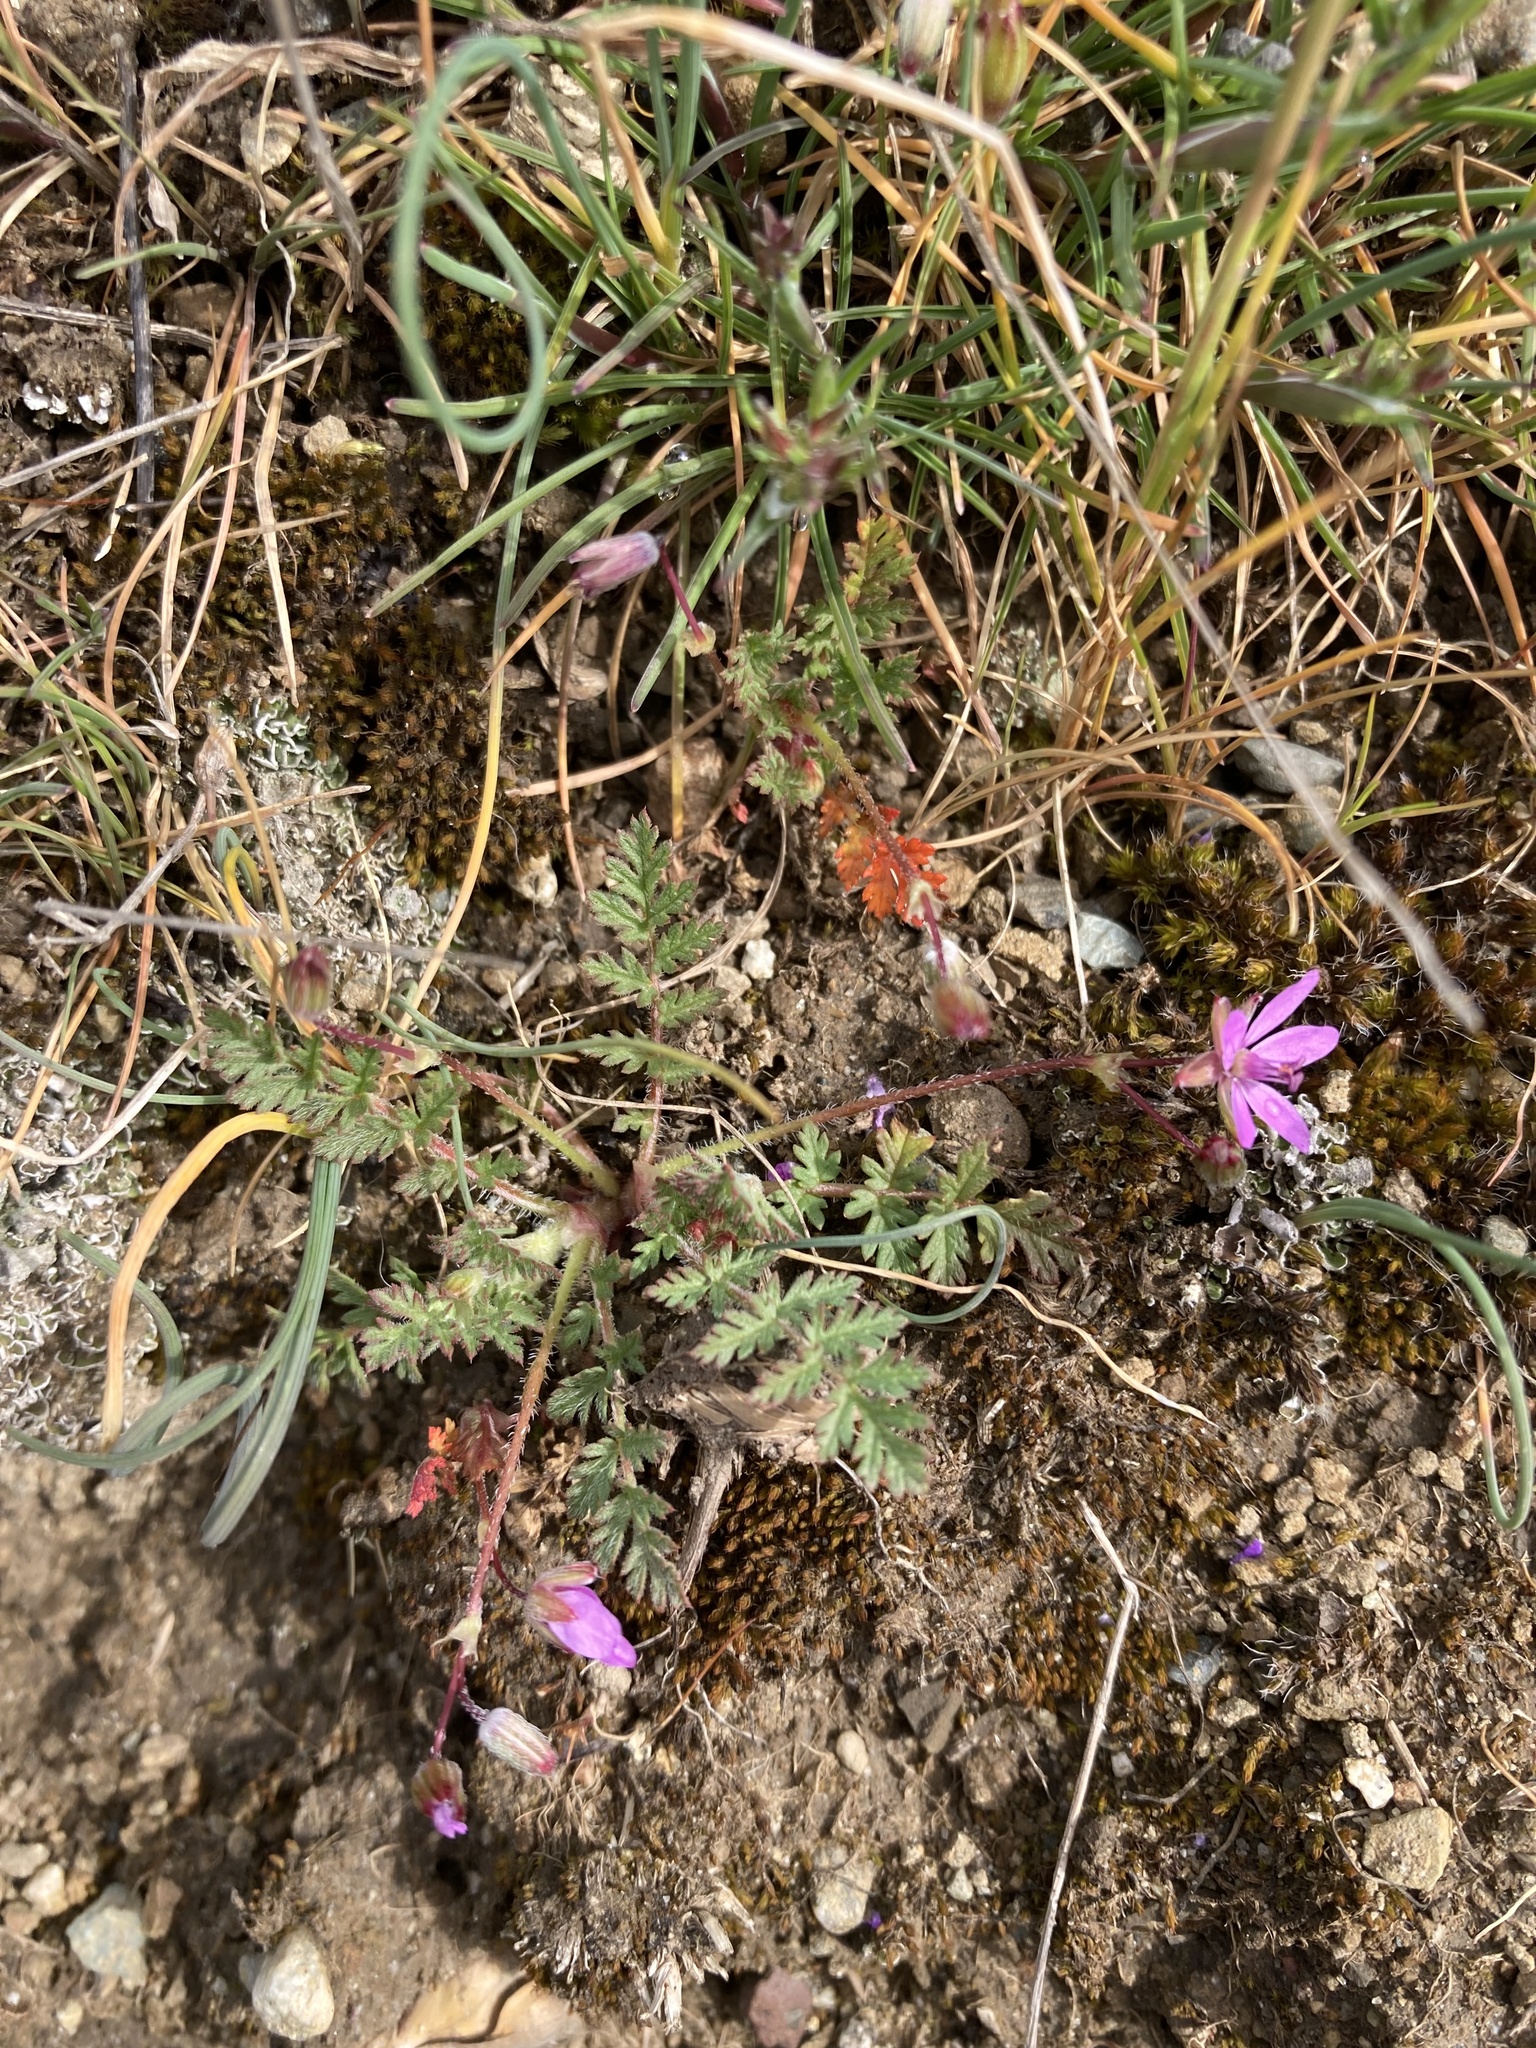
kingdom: Plantae
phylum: Tracheophyta
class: Magnoliopsida
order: Geraniales
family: Geraniaceae
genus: Erodium
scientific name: Erodium cicutarium
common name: Common stork's-bill
